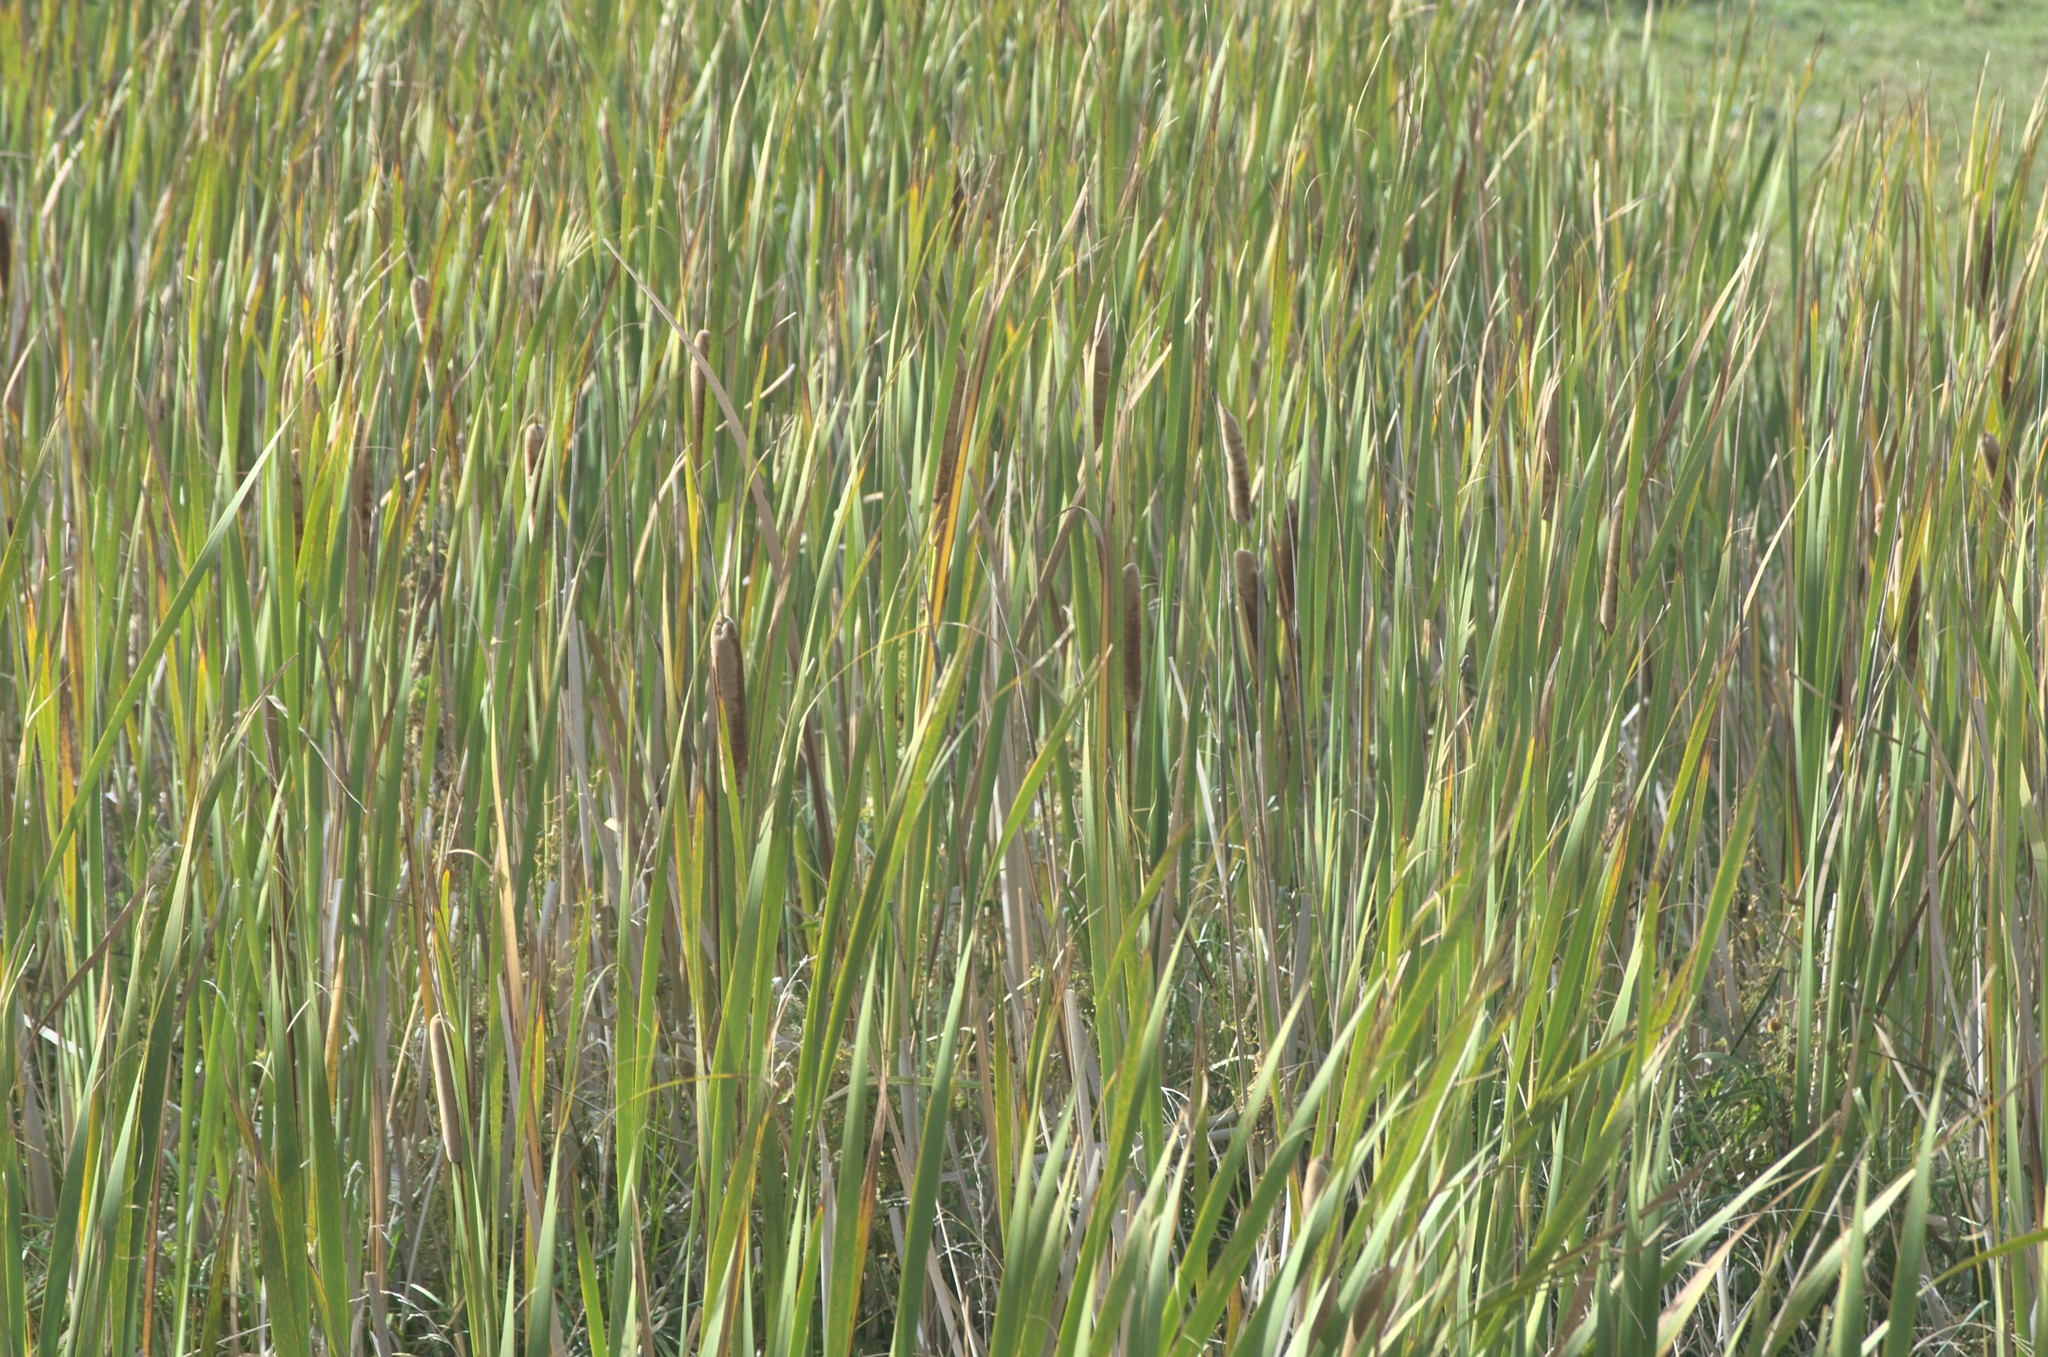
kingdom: Plantae
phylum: Tracheophyta
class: Liliopsida
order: Poales
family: Typhaceae
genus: Typha
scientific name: Typha orientalis
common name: Bullrush
